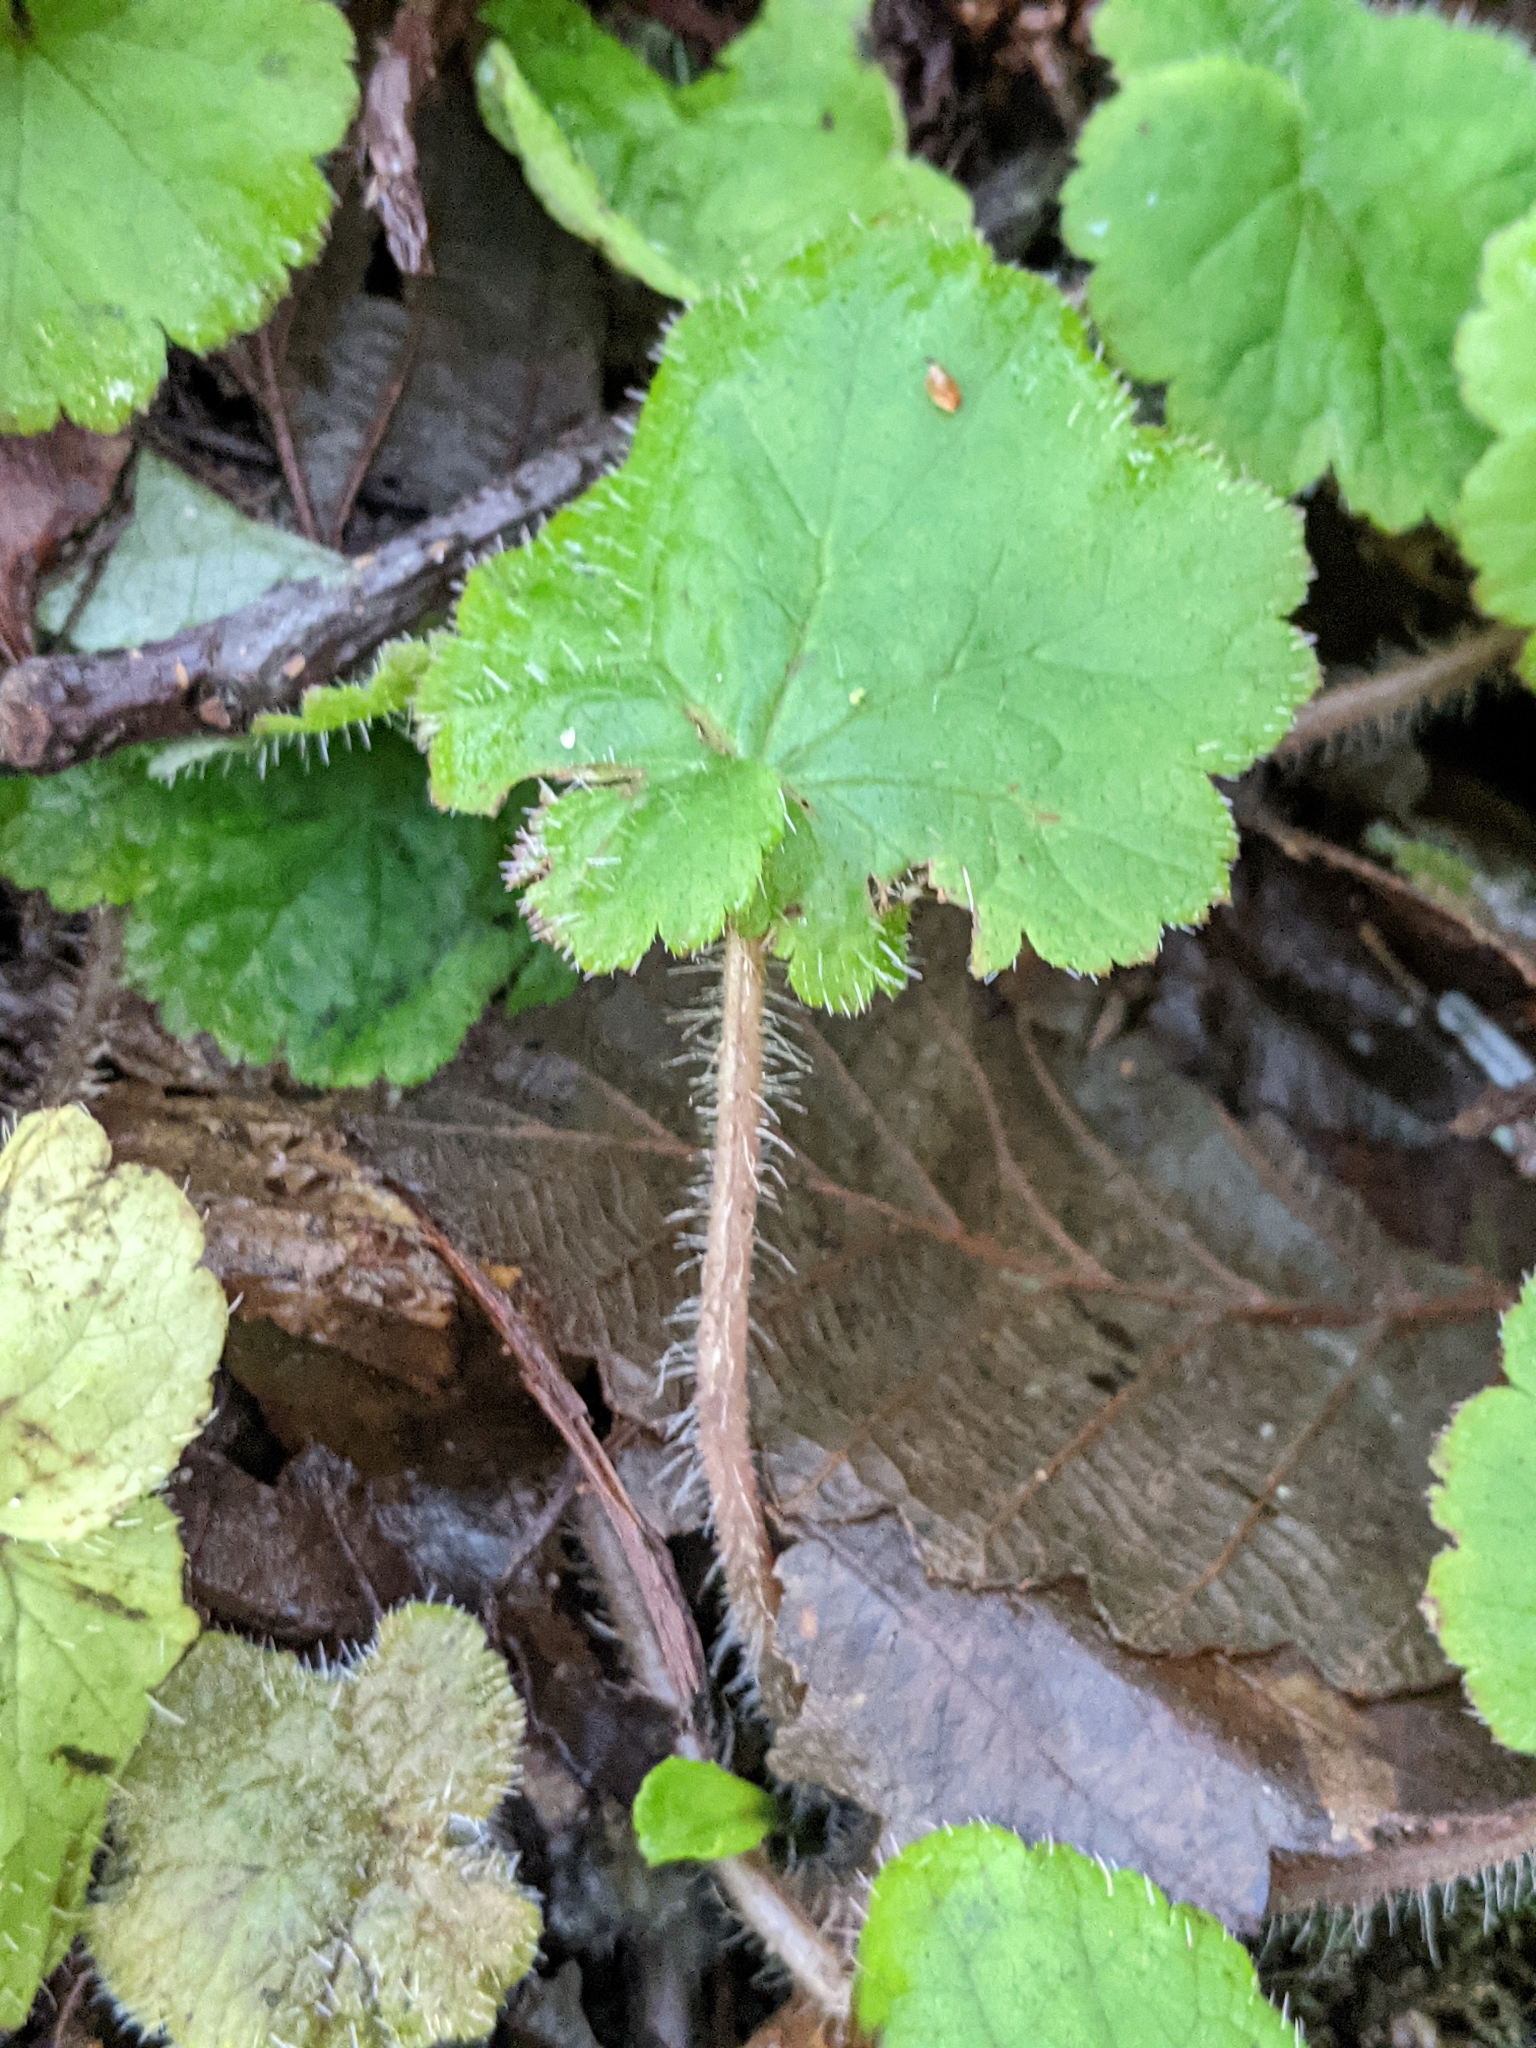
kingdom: Plantae
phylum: Tracheophyta
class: Magnoliopsida
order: Saxifragales
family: Saxifragaceae
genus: Tellima
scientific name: Tellima grandiflora
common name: Fringecups
